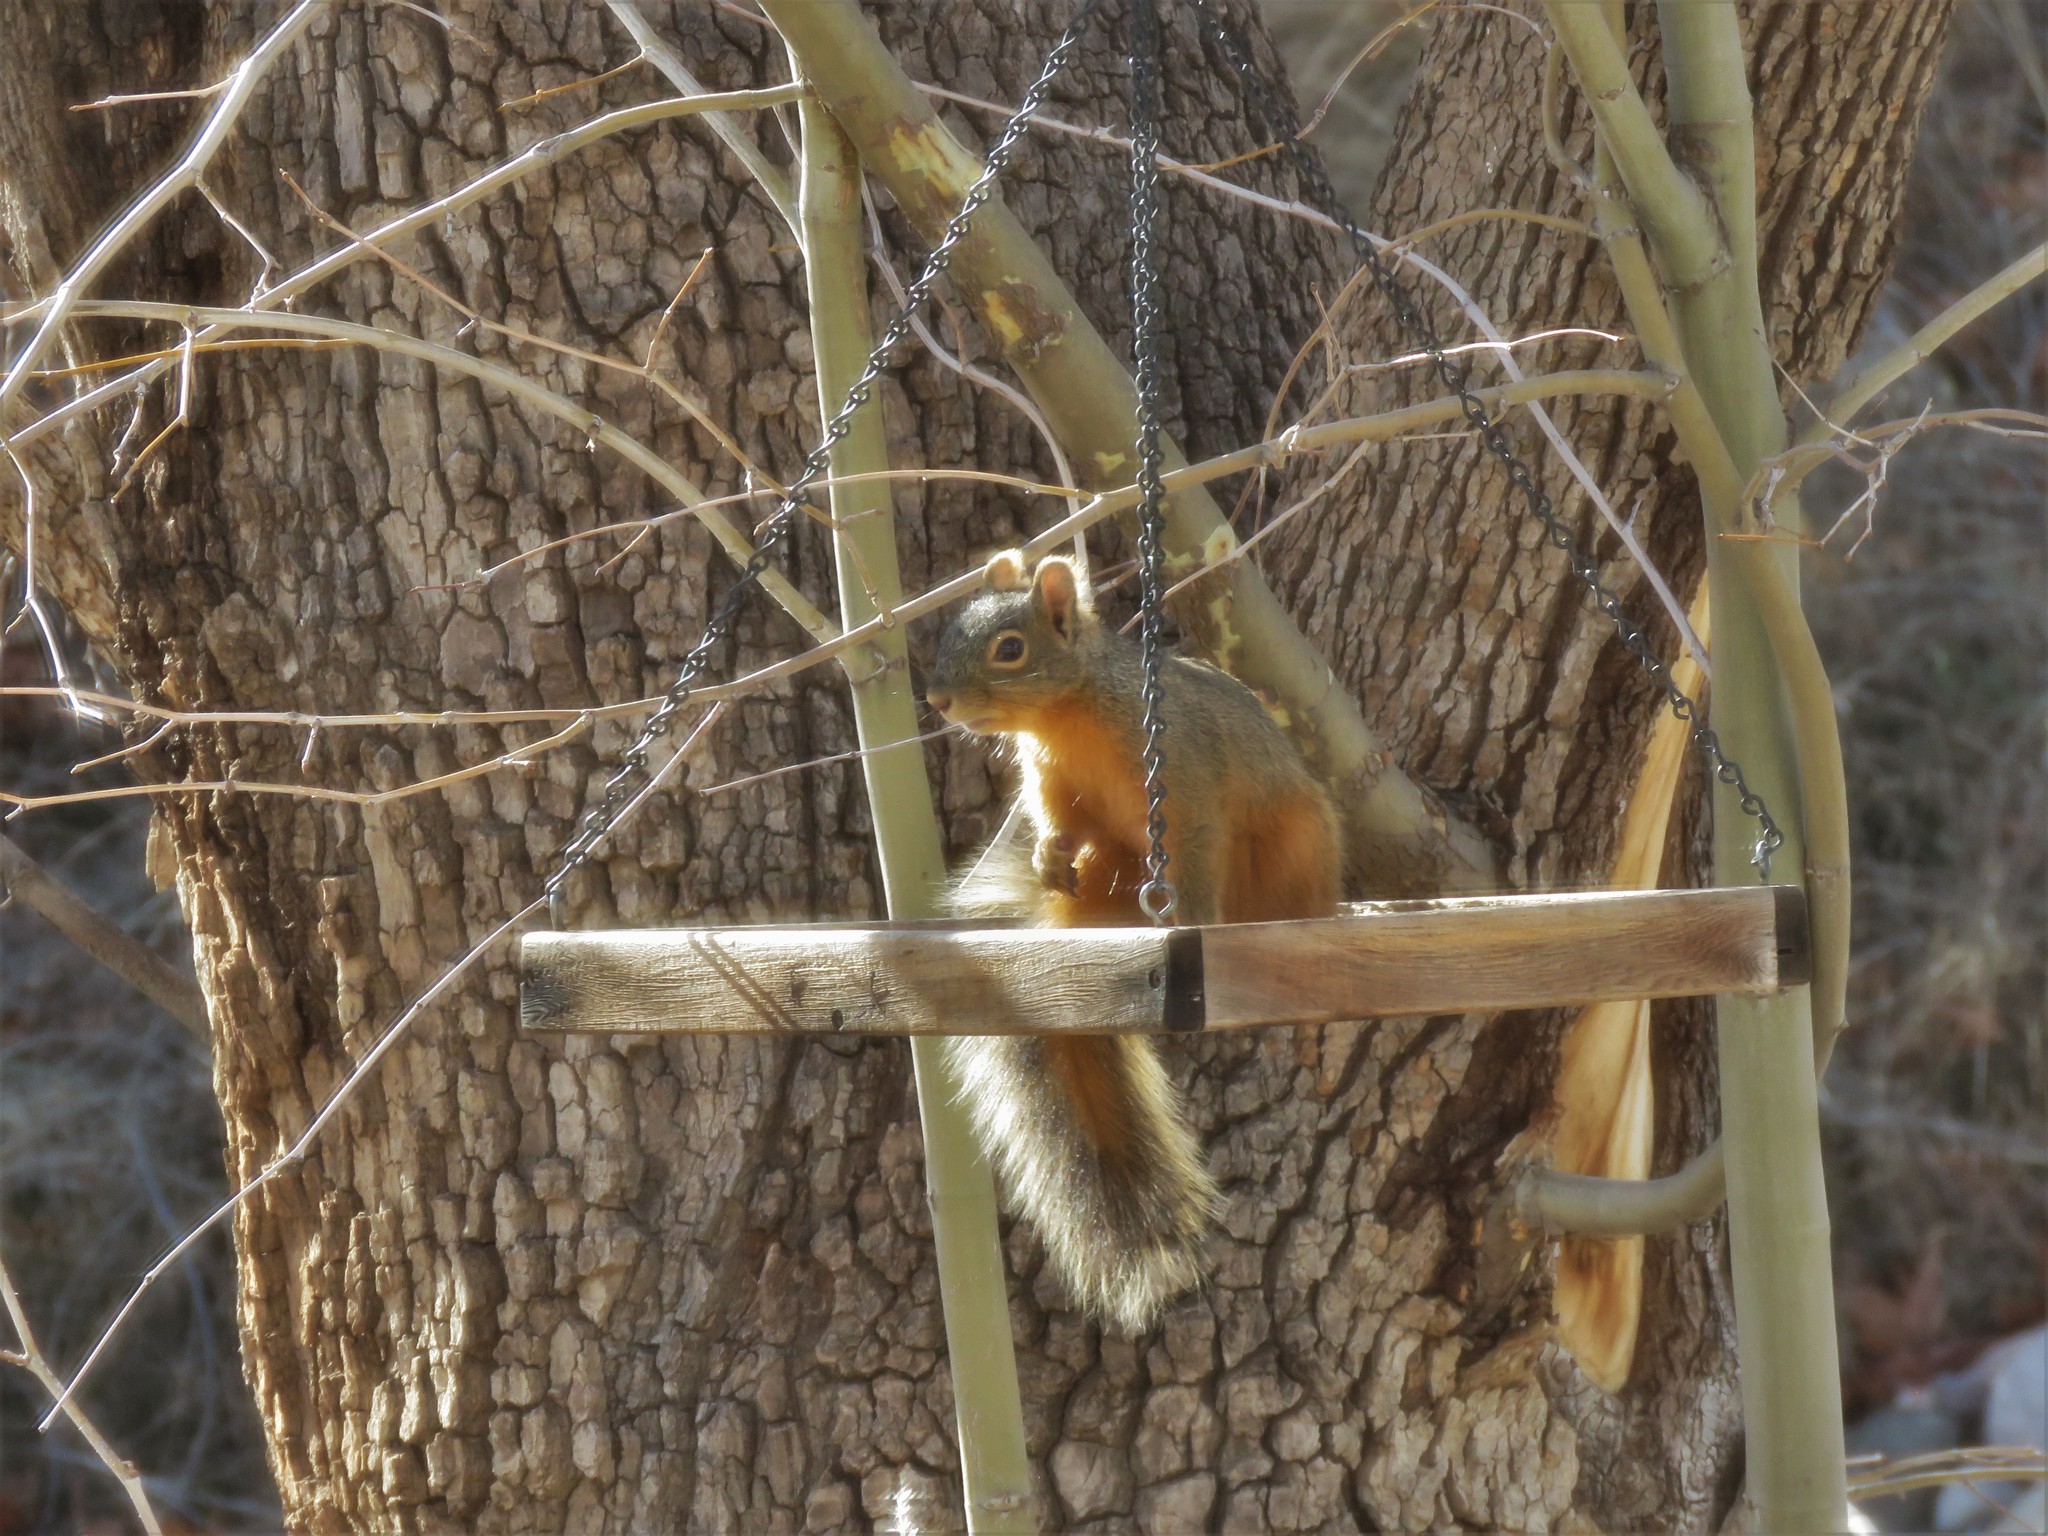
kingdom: Animalia
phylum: Chordata
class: Mammalia
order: Rodentia
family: Sciuridae
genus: Sciurus
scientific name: Sciurus nayaritensis
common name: Mexican fox squirrel
